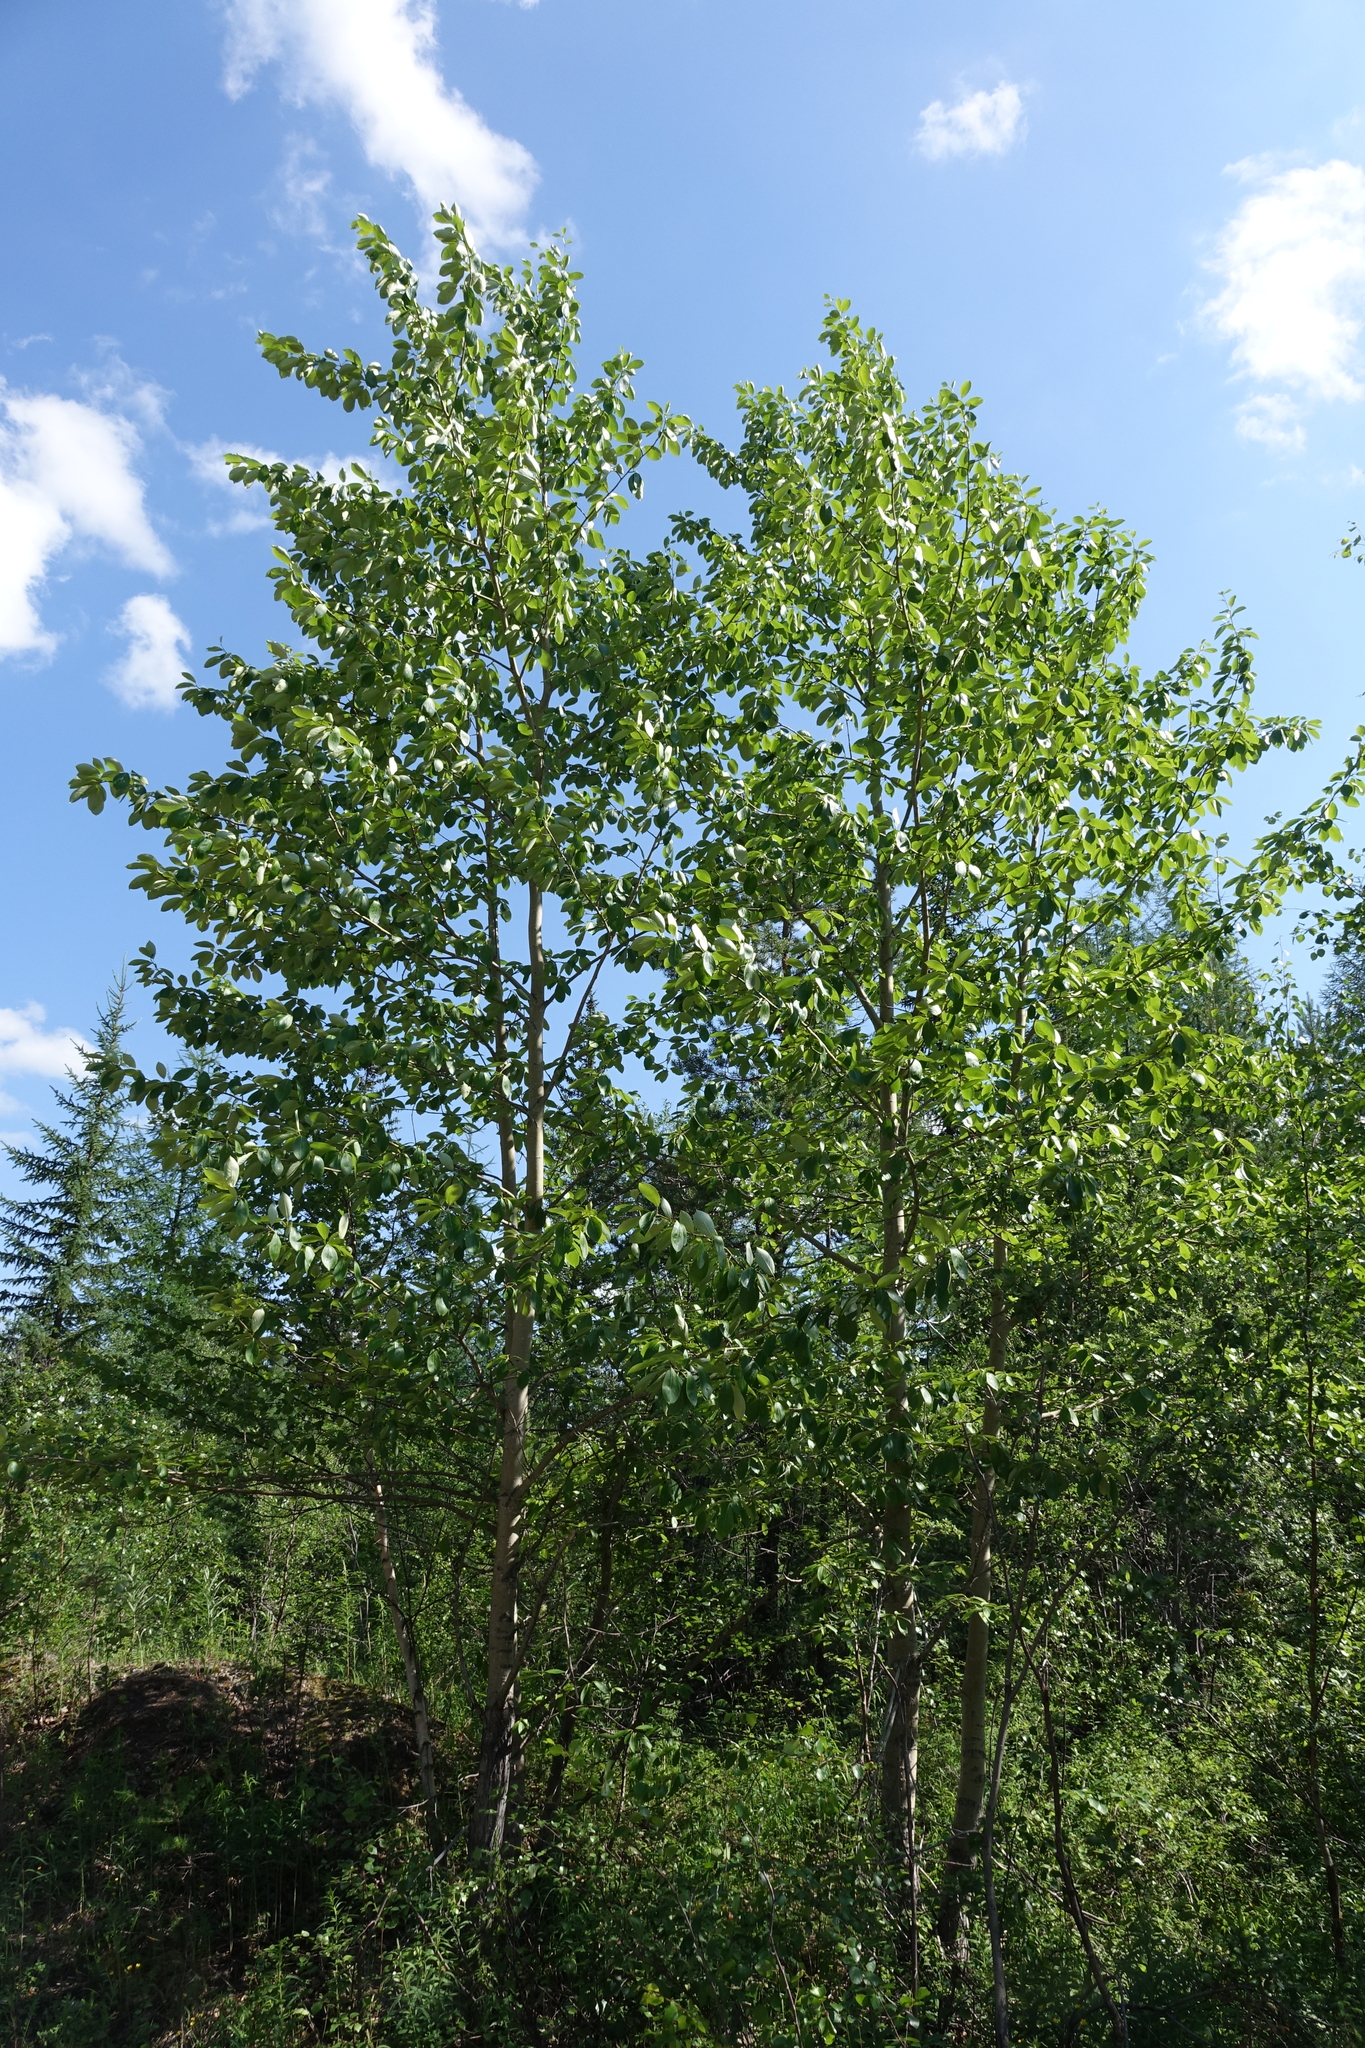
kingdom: Plantae
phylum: Tracheophyta
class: Magnoliopsida
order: Malpighiales
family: Salicaceae
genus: Populus
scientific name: Populus suaveolens
